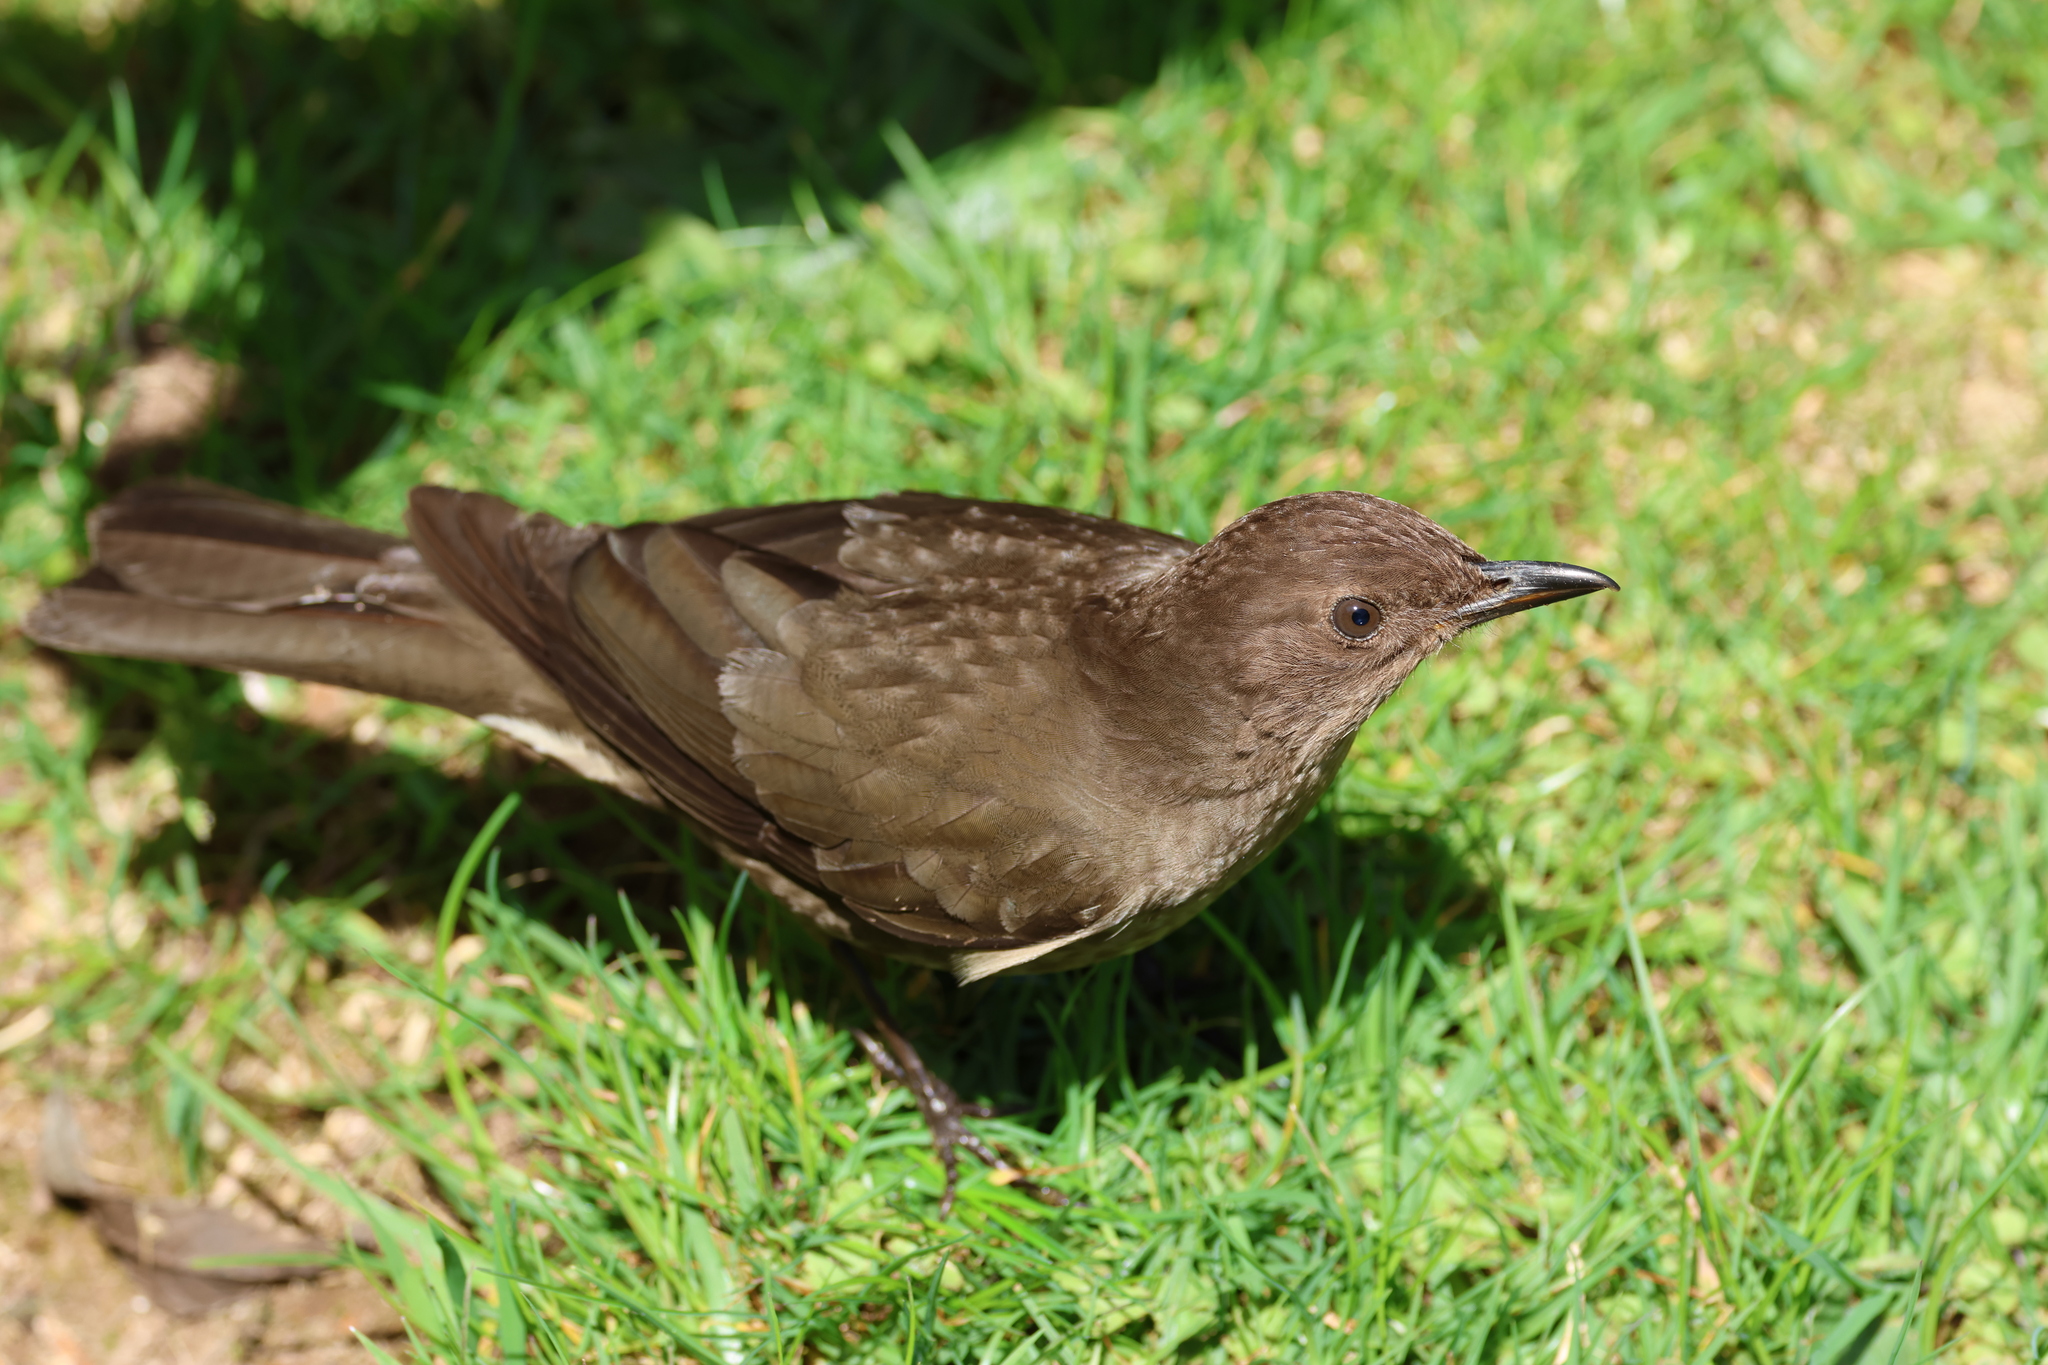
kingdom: Animalia
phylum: Chordata
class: Aves
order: Passeriformes
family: Turdidae
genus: Turdus
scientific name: Turdus plebejus
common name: Mountain thrush
